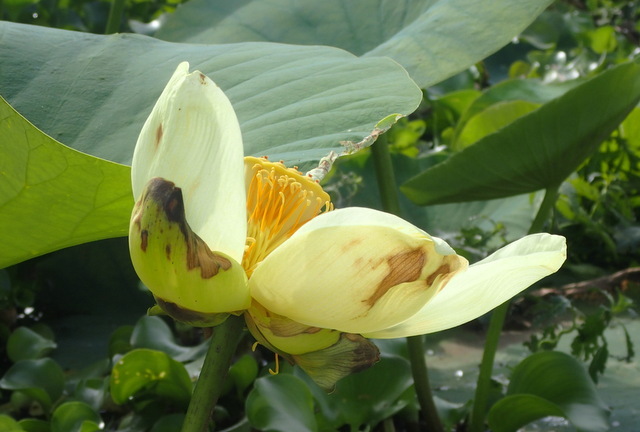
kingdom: Plantae
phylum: Tracheophyta
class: Magnoliopsida
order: Proteales
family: Nelumbonaceae
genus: Nelumbo
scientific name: Nelumbo lutea
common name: American lotus
